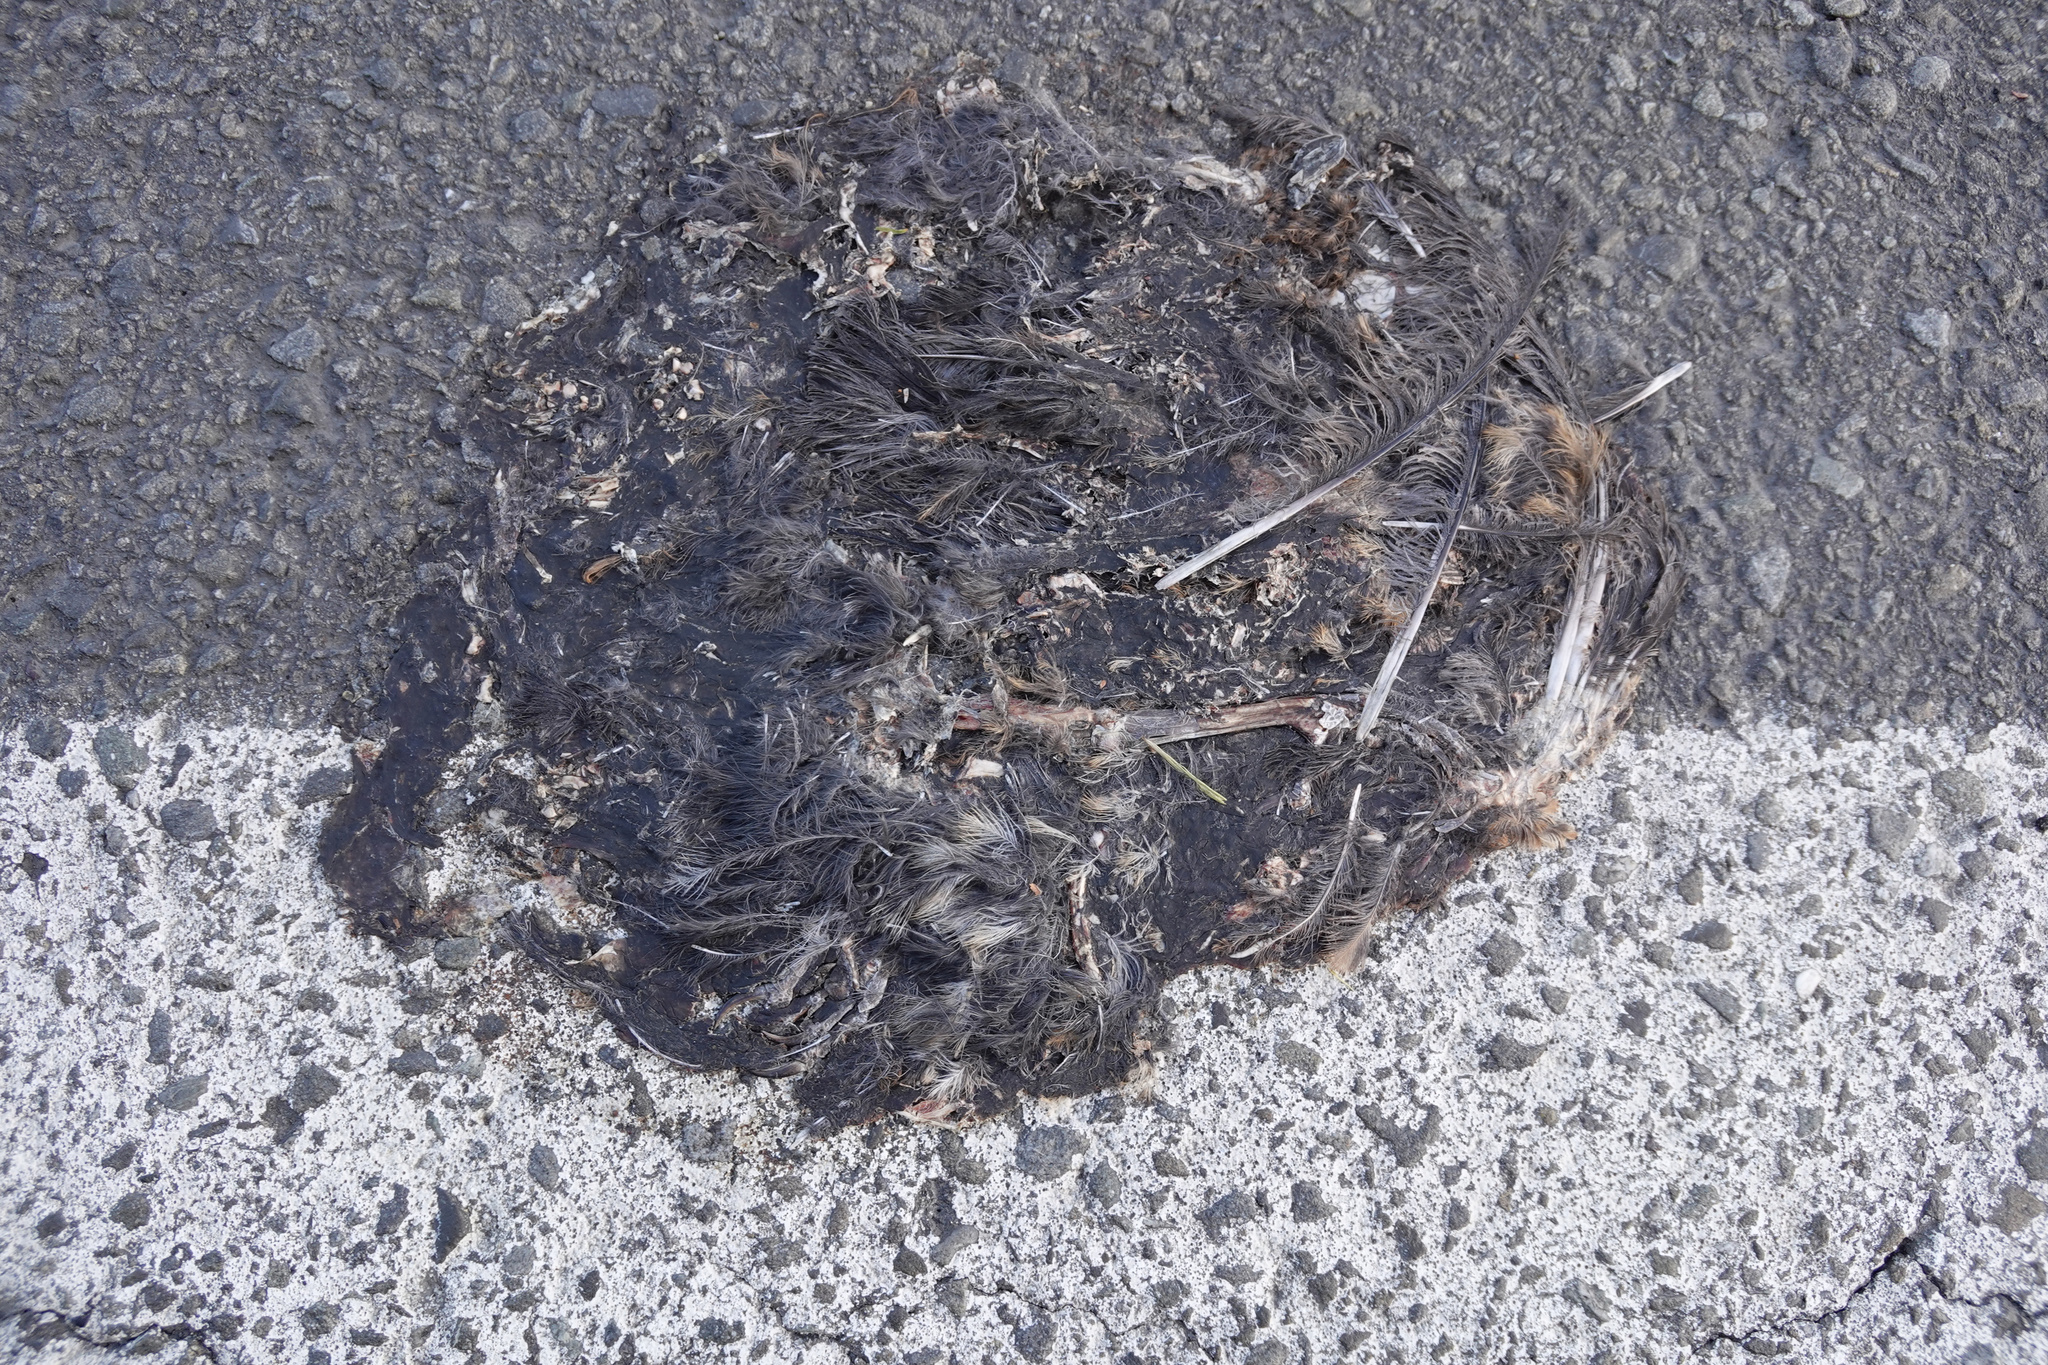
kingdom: Animalia
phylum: Chordata
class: Aves
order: Passeriformes
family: Turdidae
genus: Turdus
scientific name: Turdus merula
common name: Common blackbird
